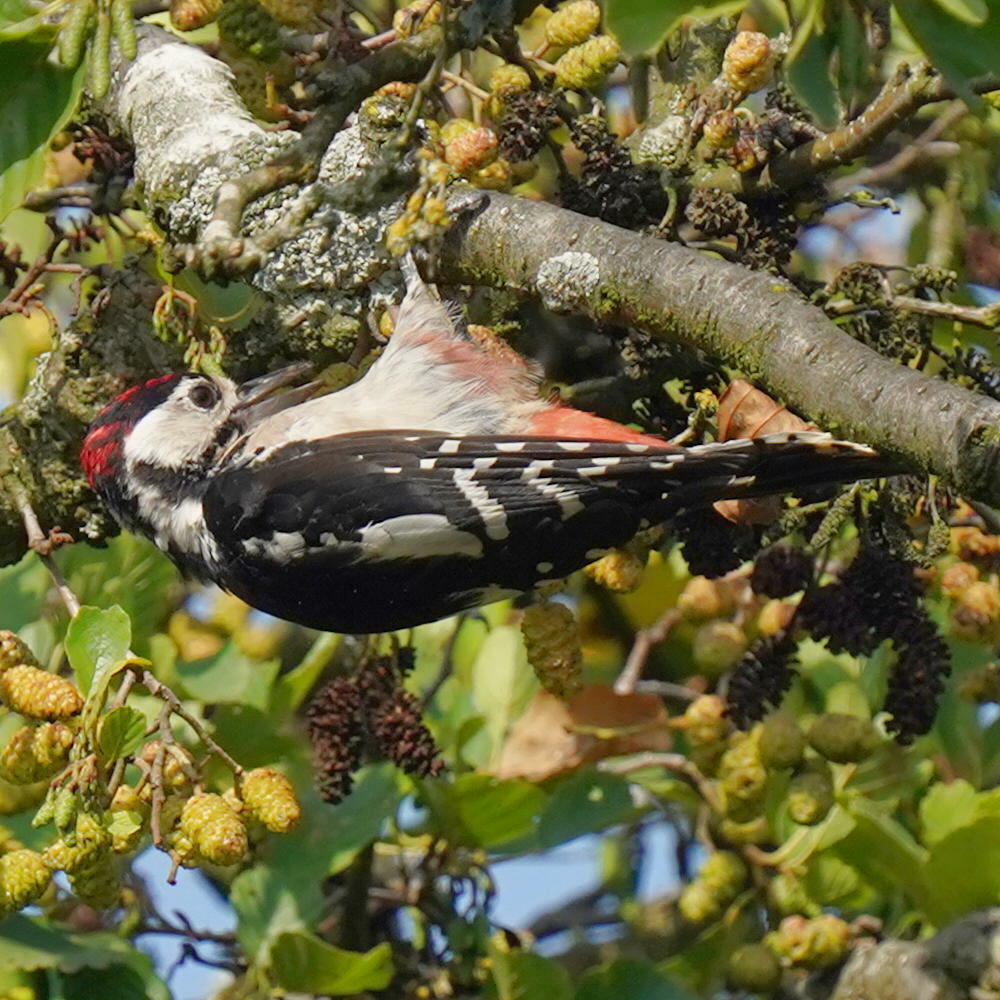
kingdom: Animalia
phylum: Chordata
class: Aves
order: Piciformes
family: Picidae
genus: Dendrocopos
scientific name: Dendrocopos major
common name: Great spotted woodpecker
